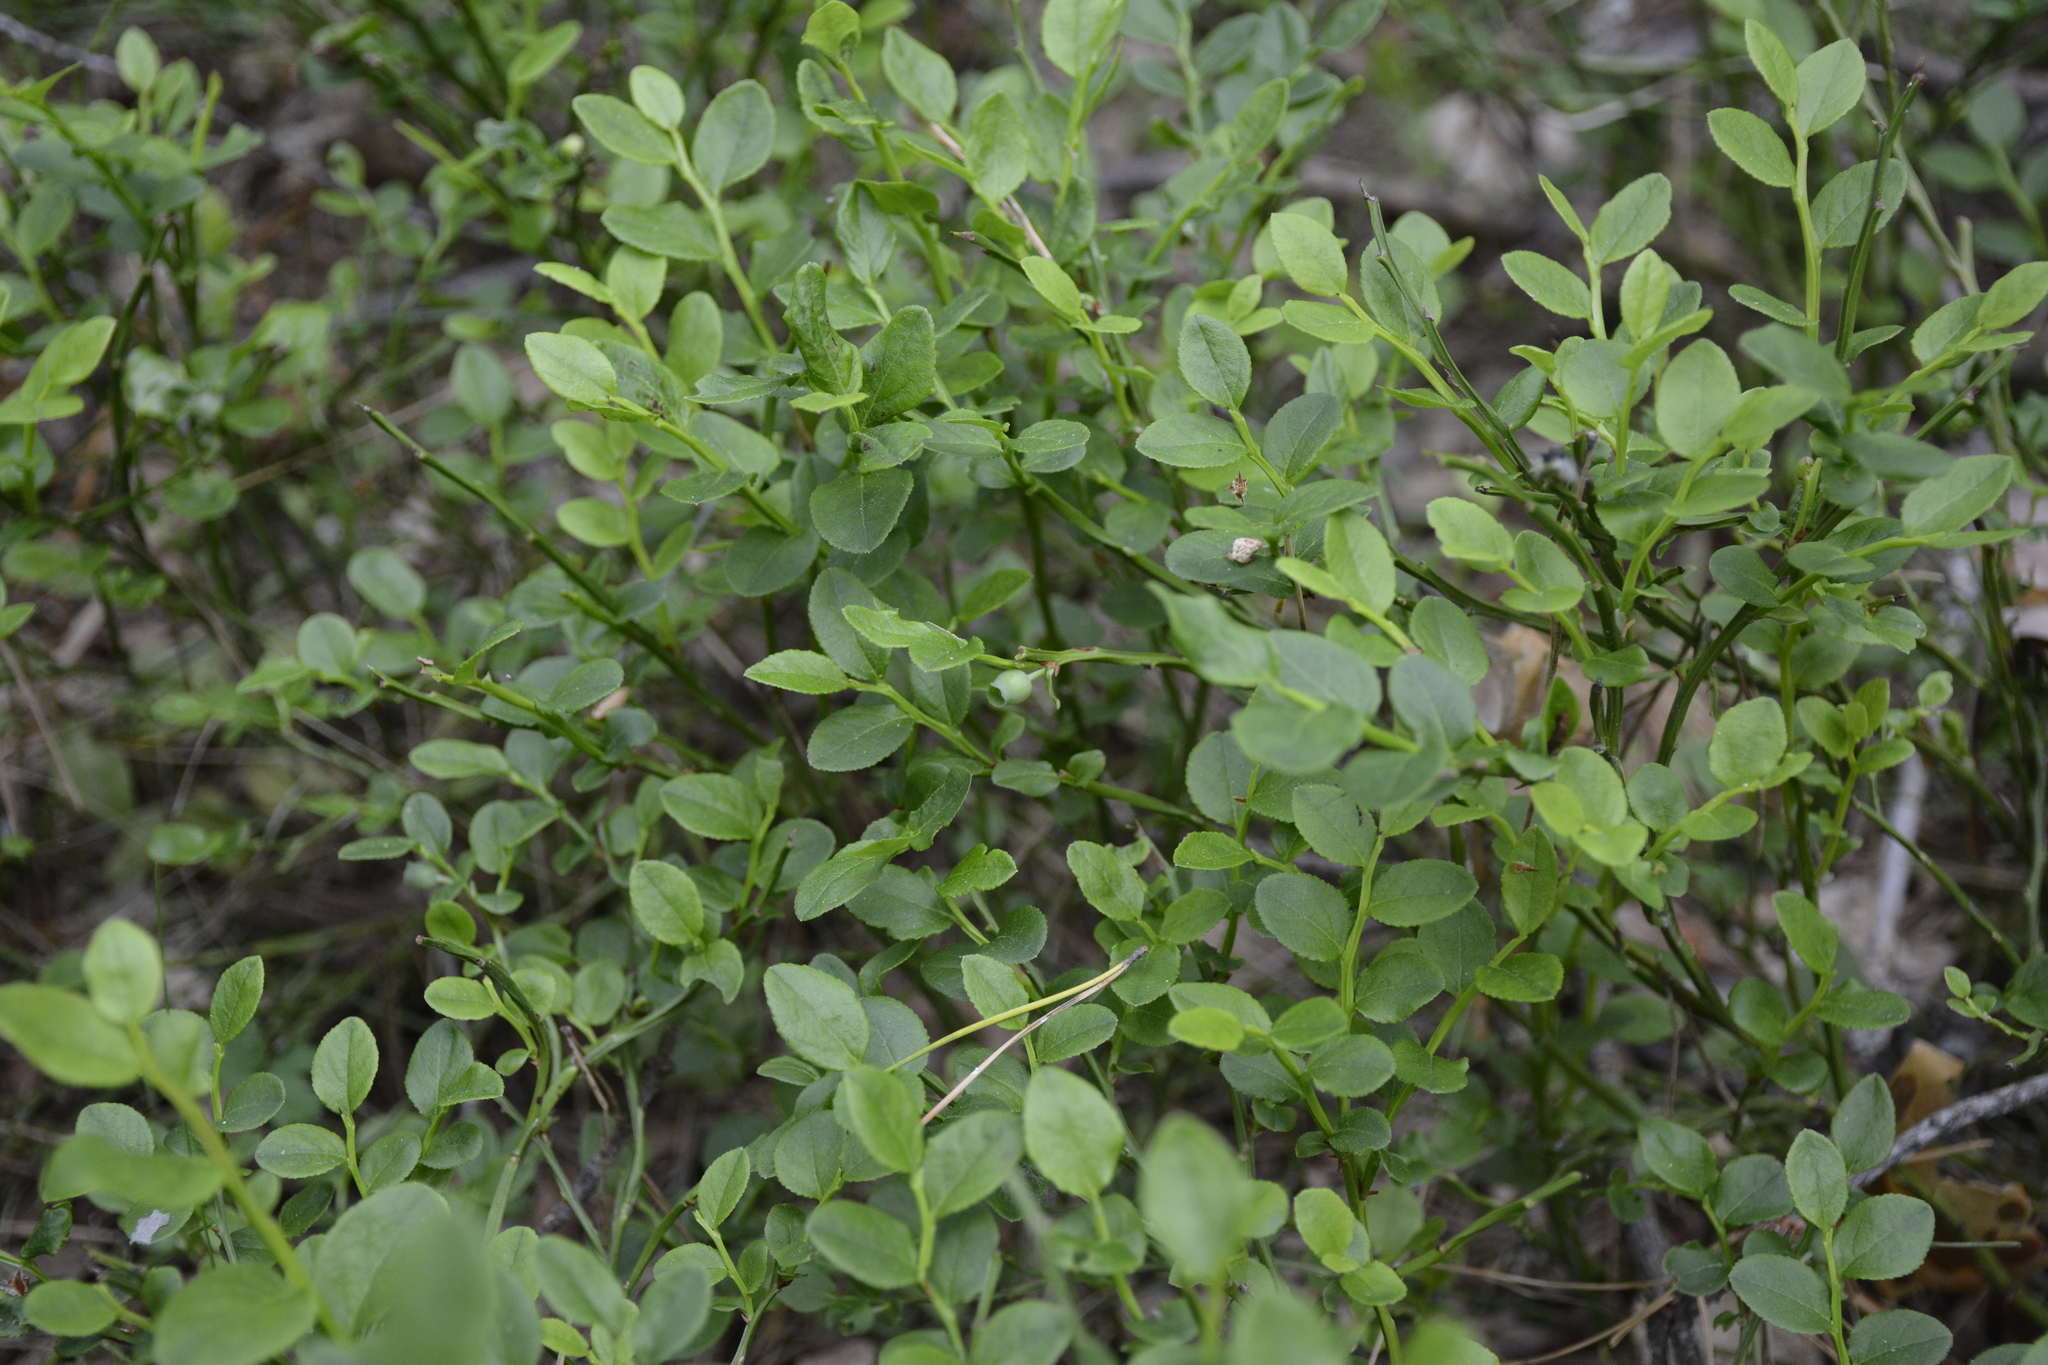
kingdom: Plantae
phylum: Tracheophyta
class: Magnoliopsida
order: Ericales
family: Ericaceae
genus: Vaccinium
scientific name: Vaccinium myrtillus
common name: Bilberry
